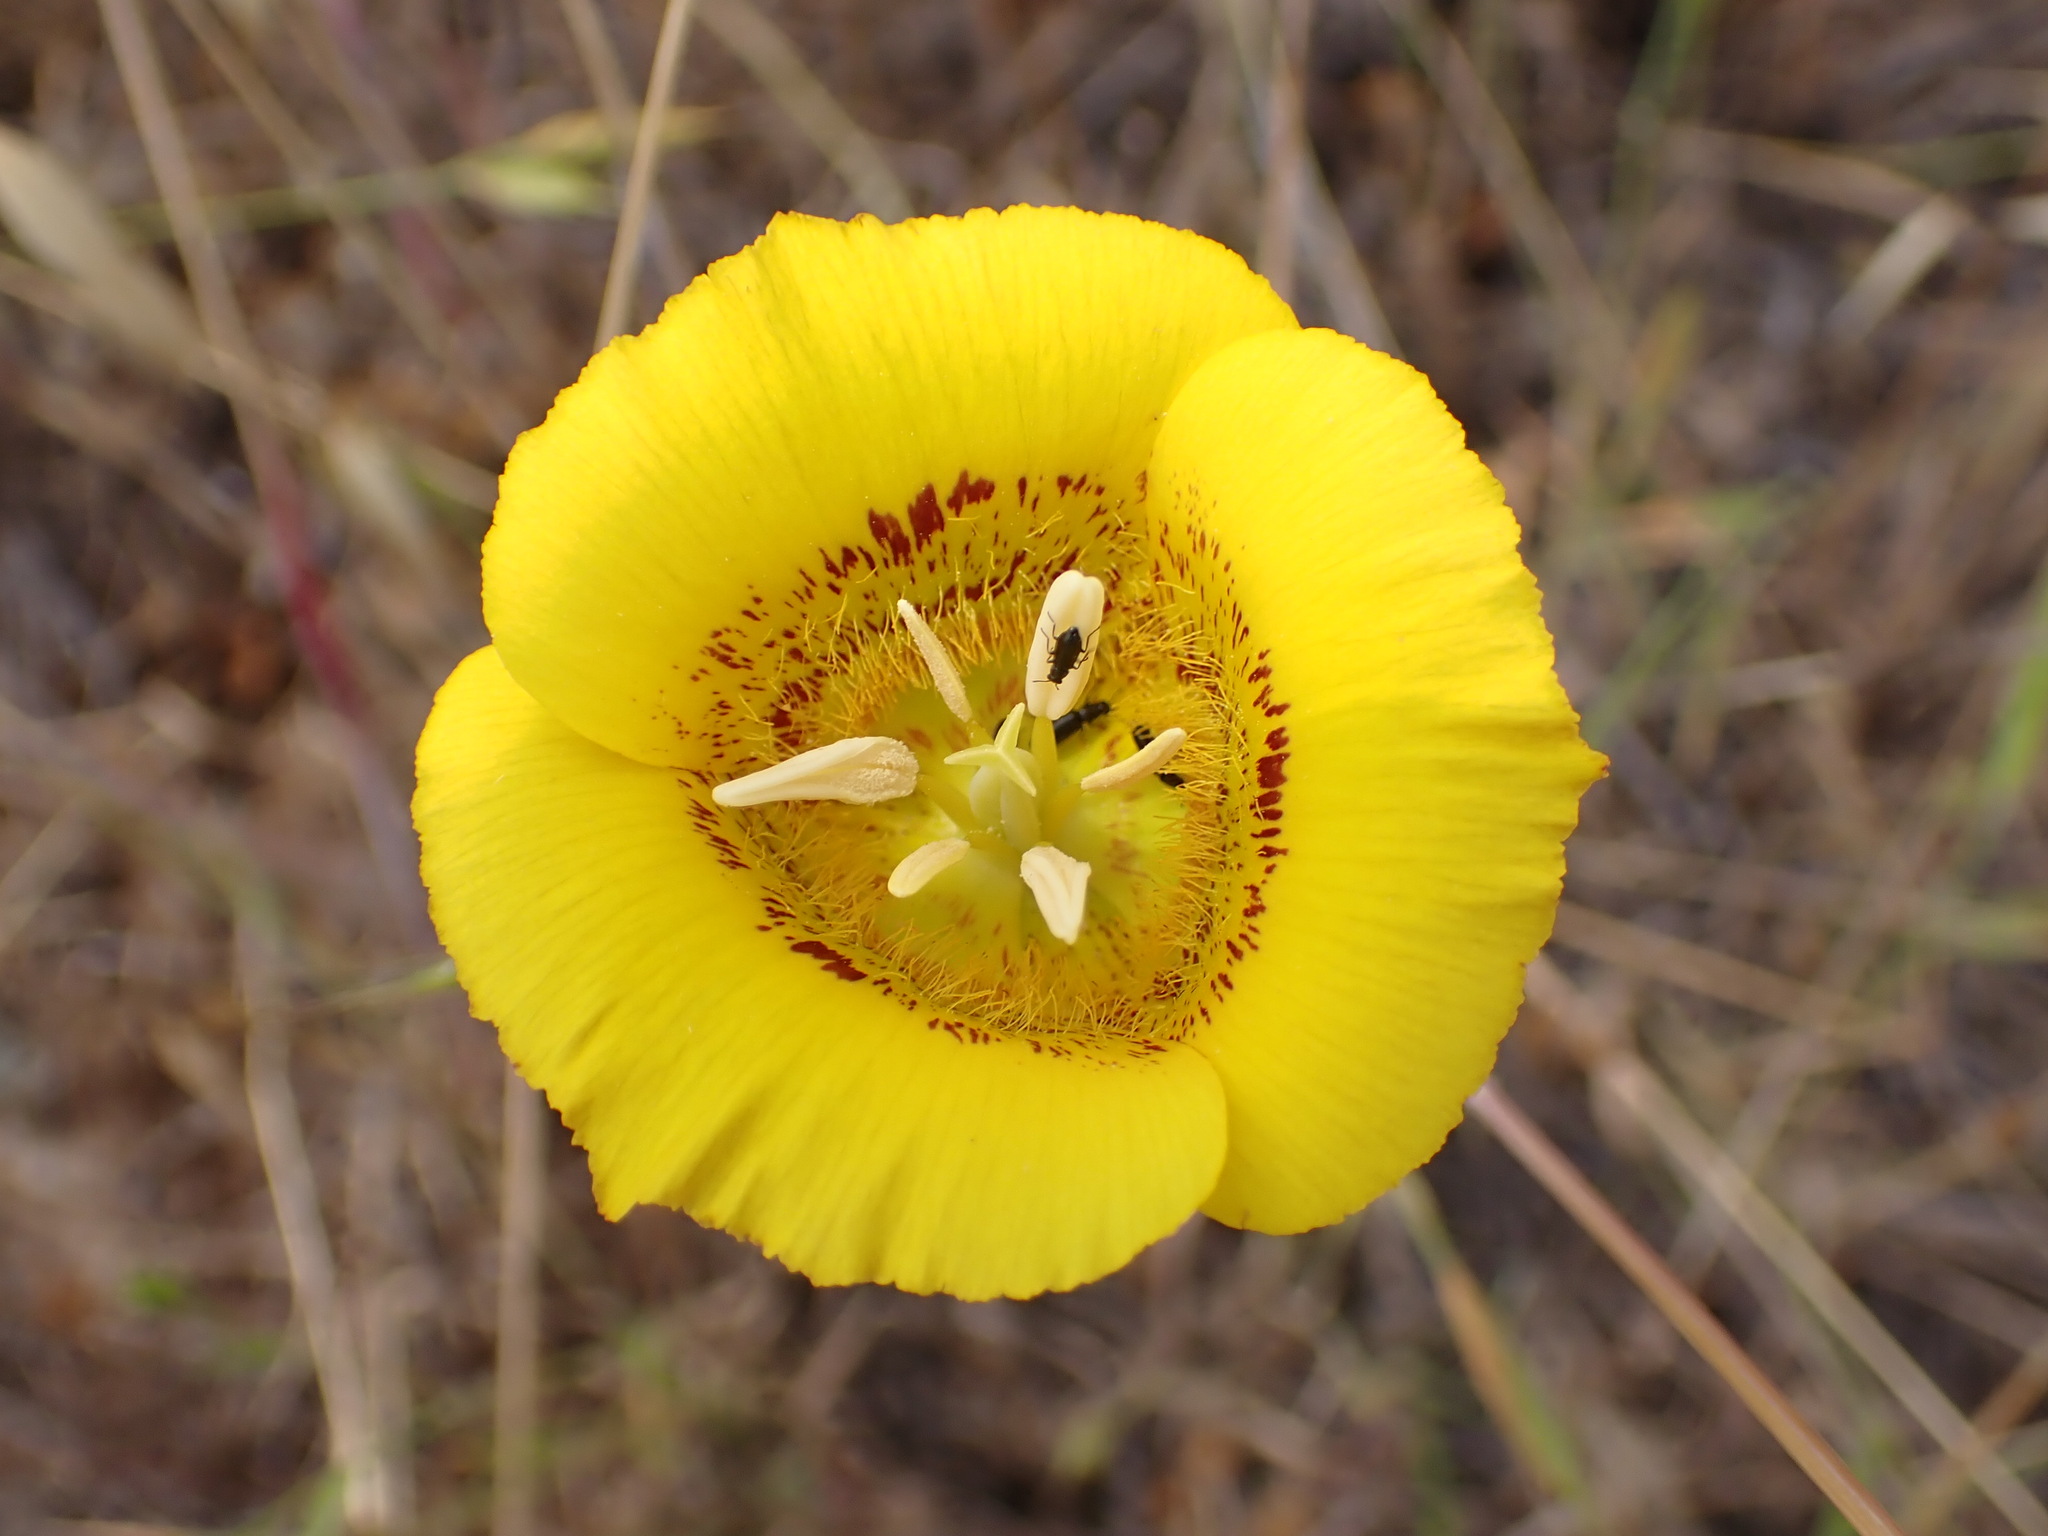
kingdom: Plantae
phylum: Tracheophyta
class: Liliopsida
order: Liliales
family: Liliaceae
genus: Calochortus
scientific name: Calochortus luteus
